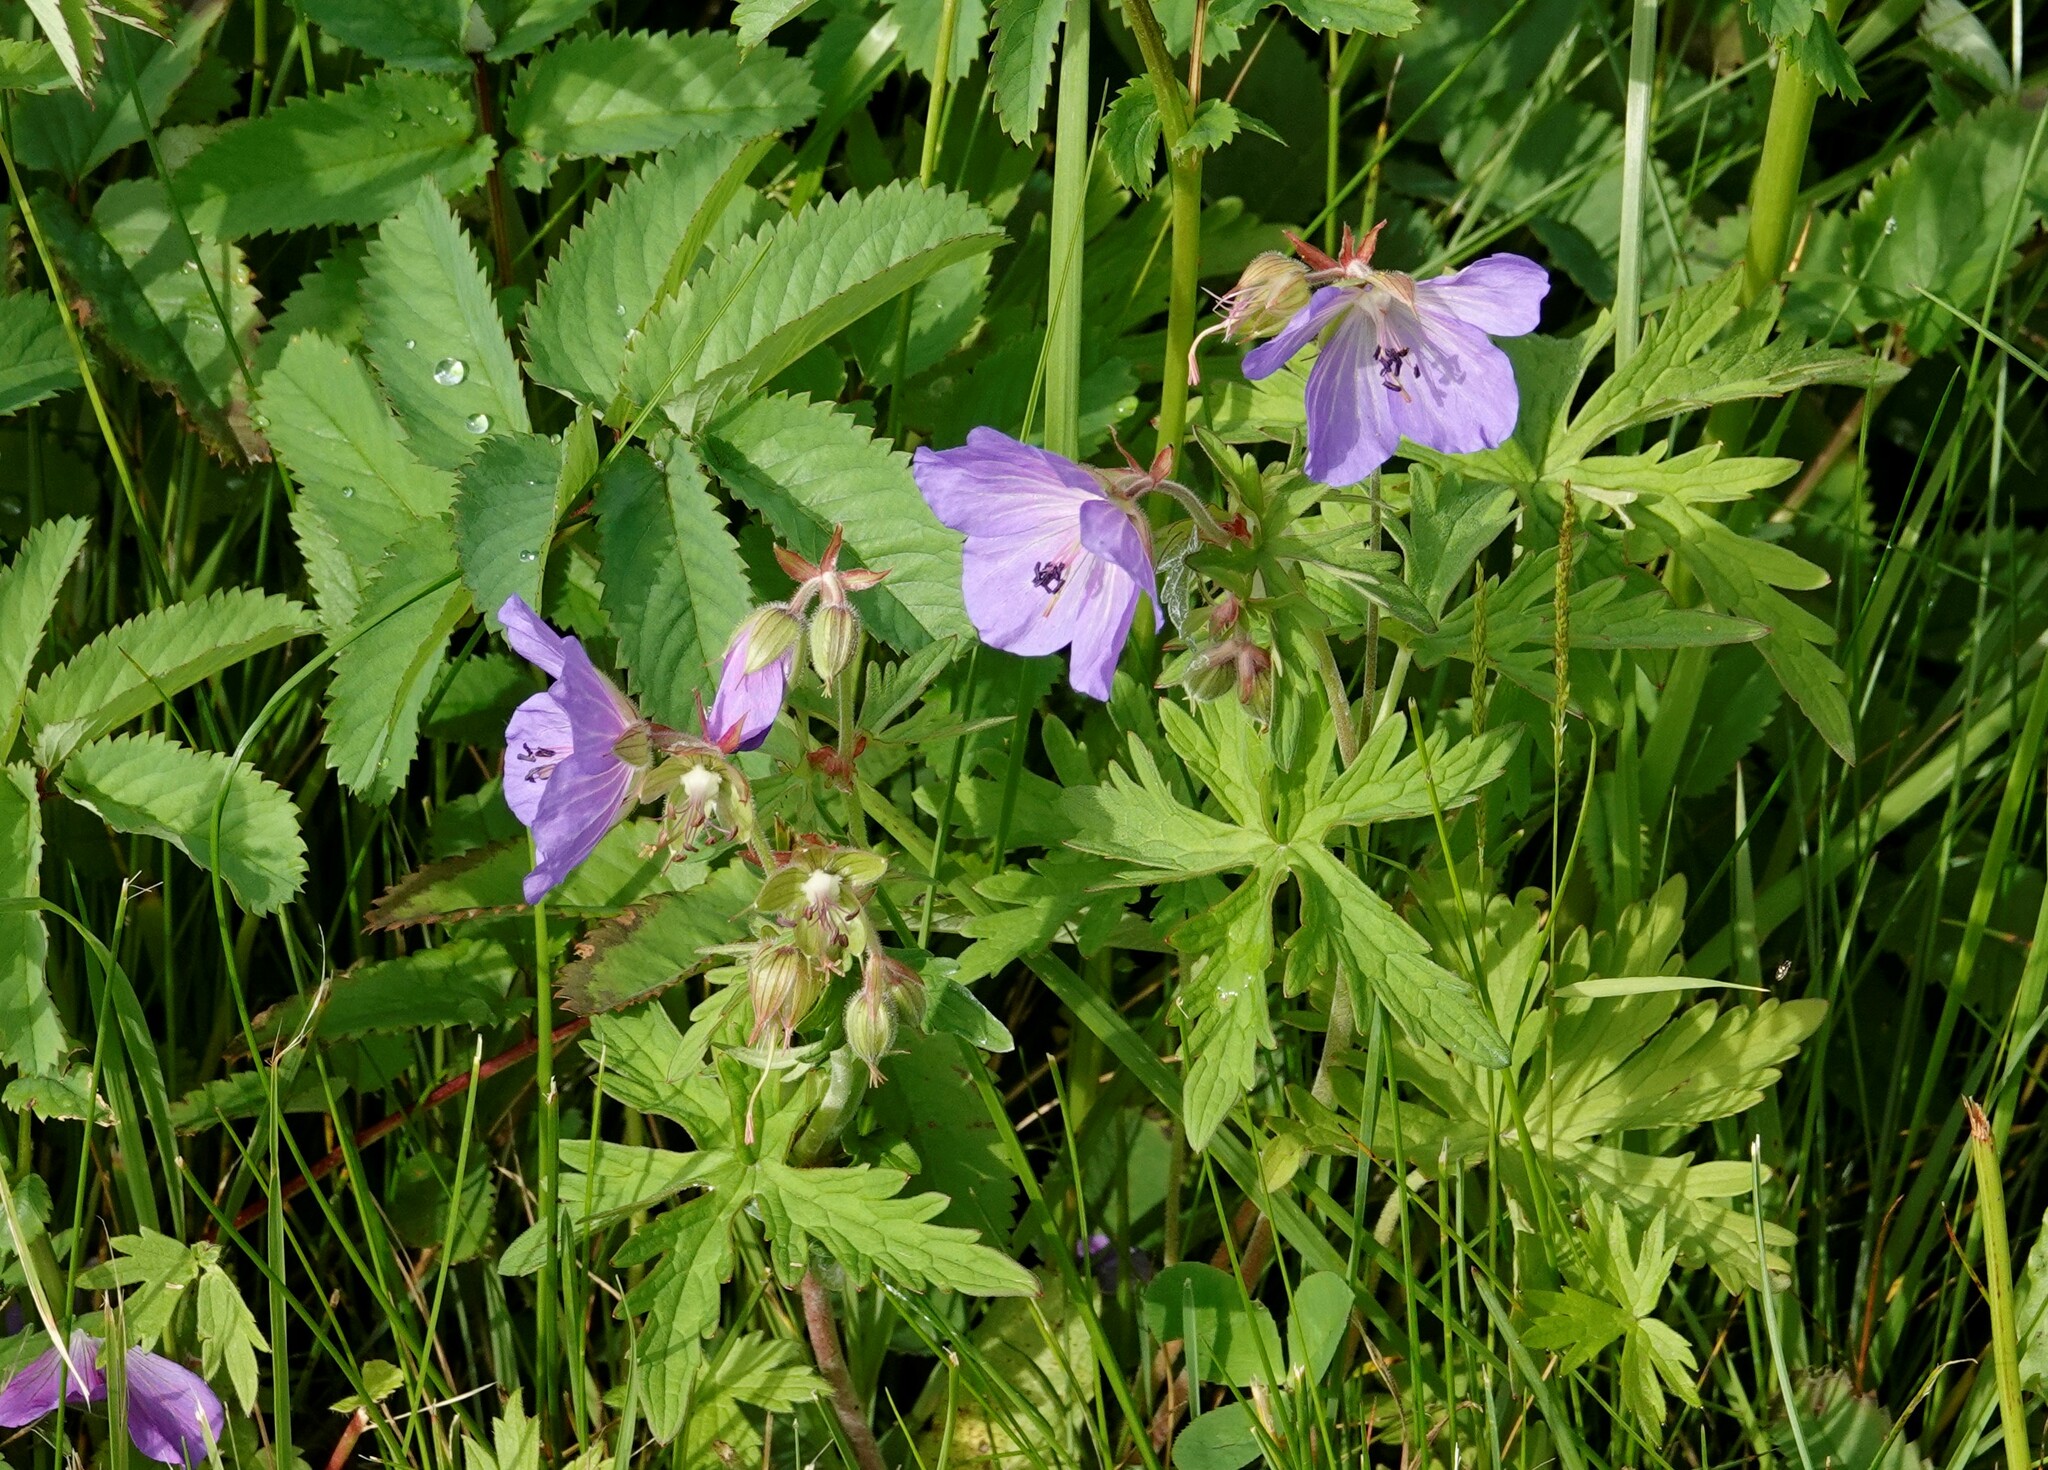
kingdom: Plantae
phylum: Tracheophyta
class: Magnoliopsida
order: Geraniales
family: Geraniaceae
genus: Geranium
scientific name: Geranium pratense
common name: Meadow crane's-bill
